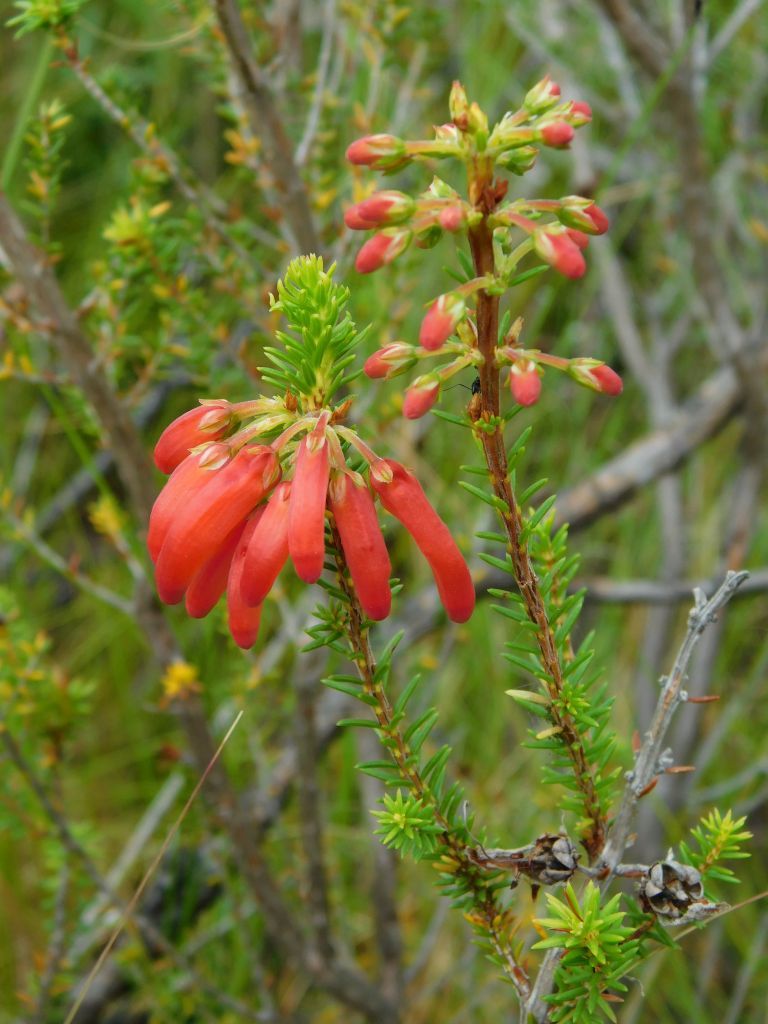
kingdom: Plantae
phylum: Tracheophyta
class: Magnoliopsida
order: Ericales
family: Ericaceae
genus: Erica
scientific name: Erica mammosa
